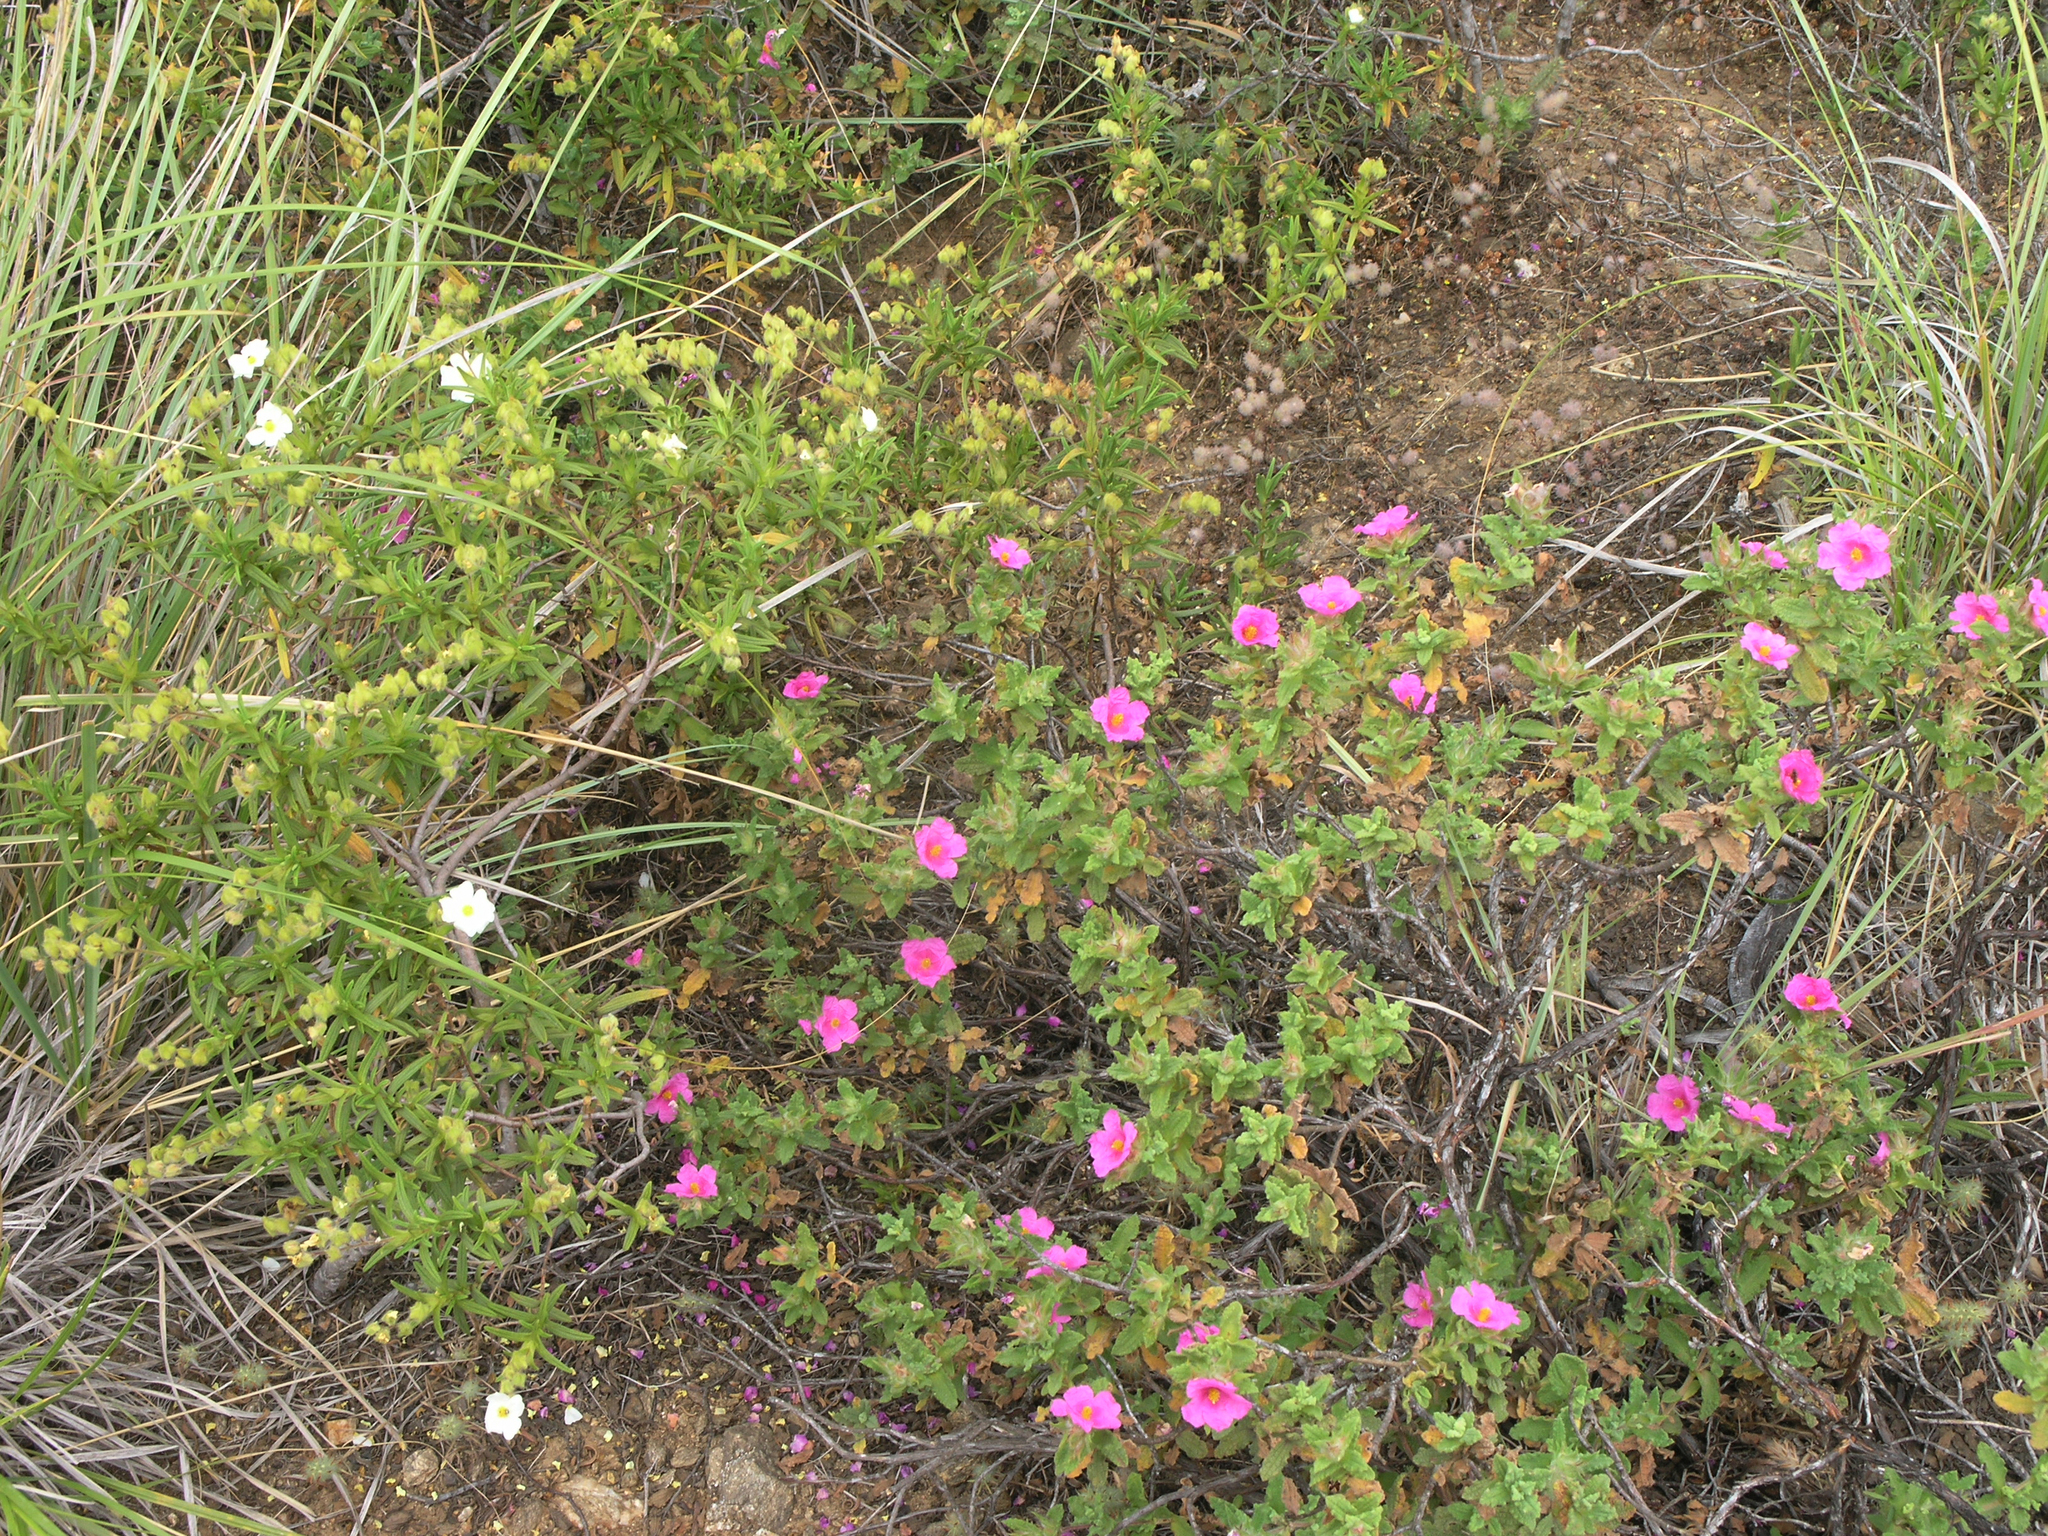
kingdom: Plantae
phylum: Tracheophyta
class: Magnoliopsida
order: Malvales
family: Cistaceae
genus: Cistus
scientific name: Cistus crispus
